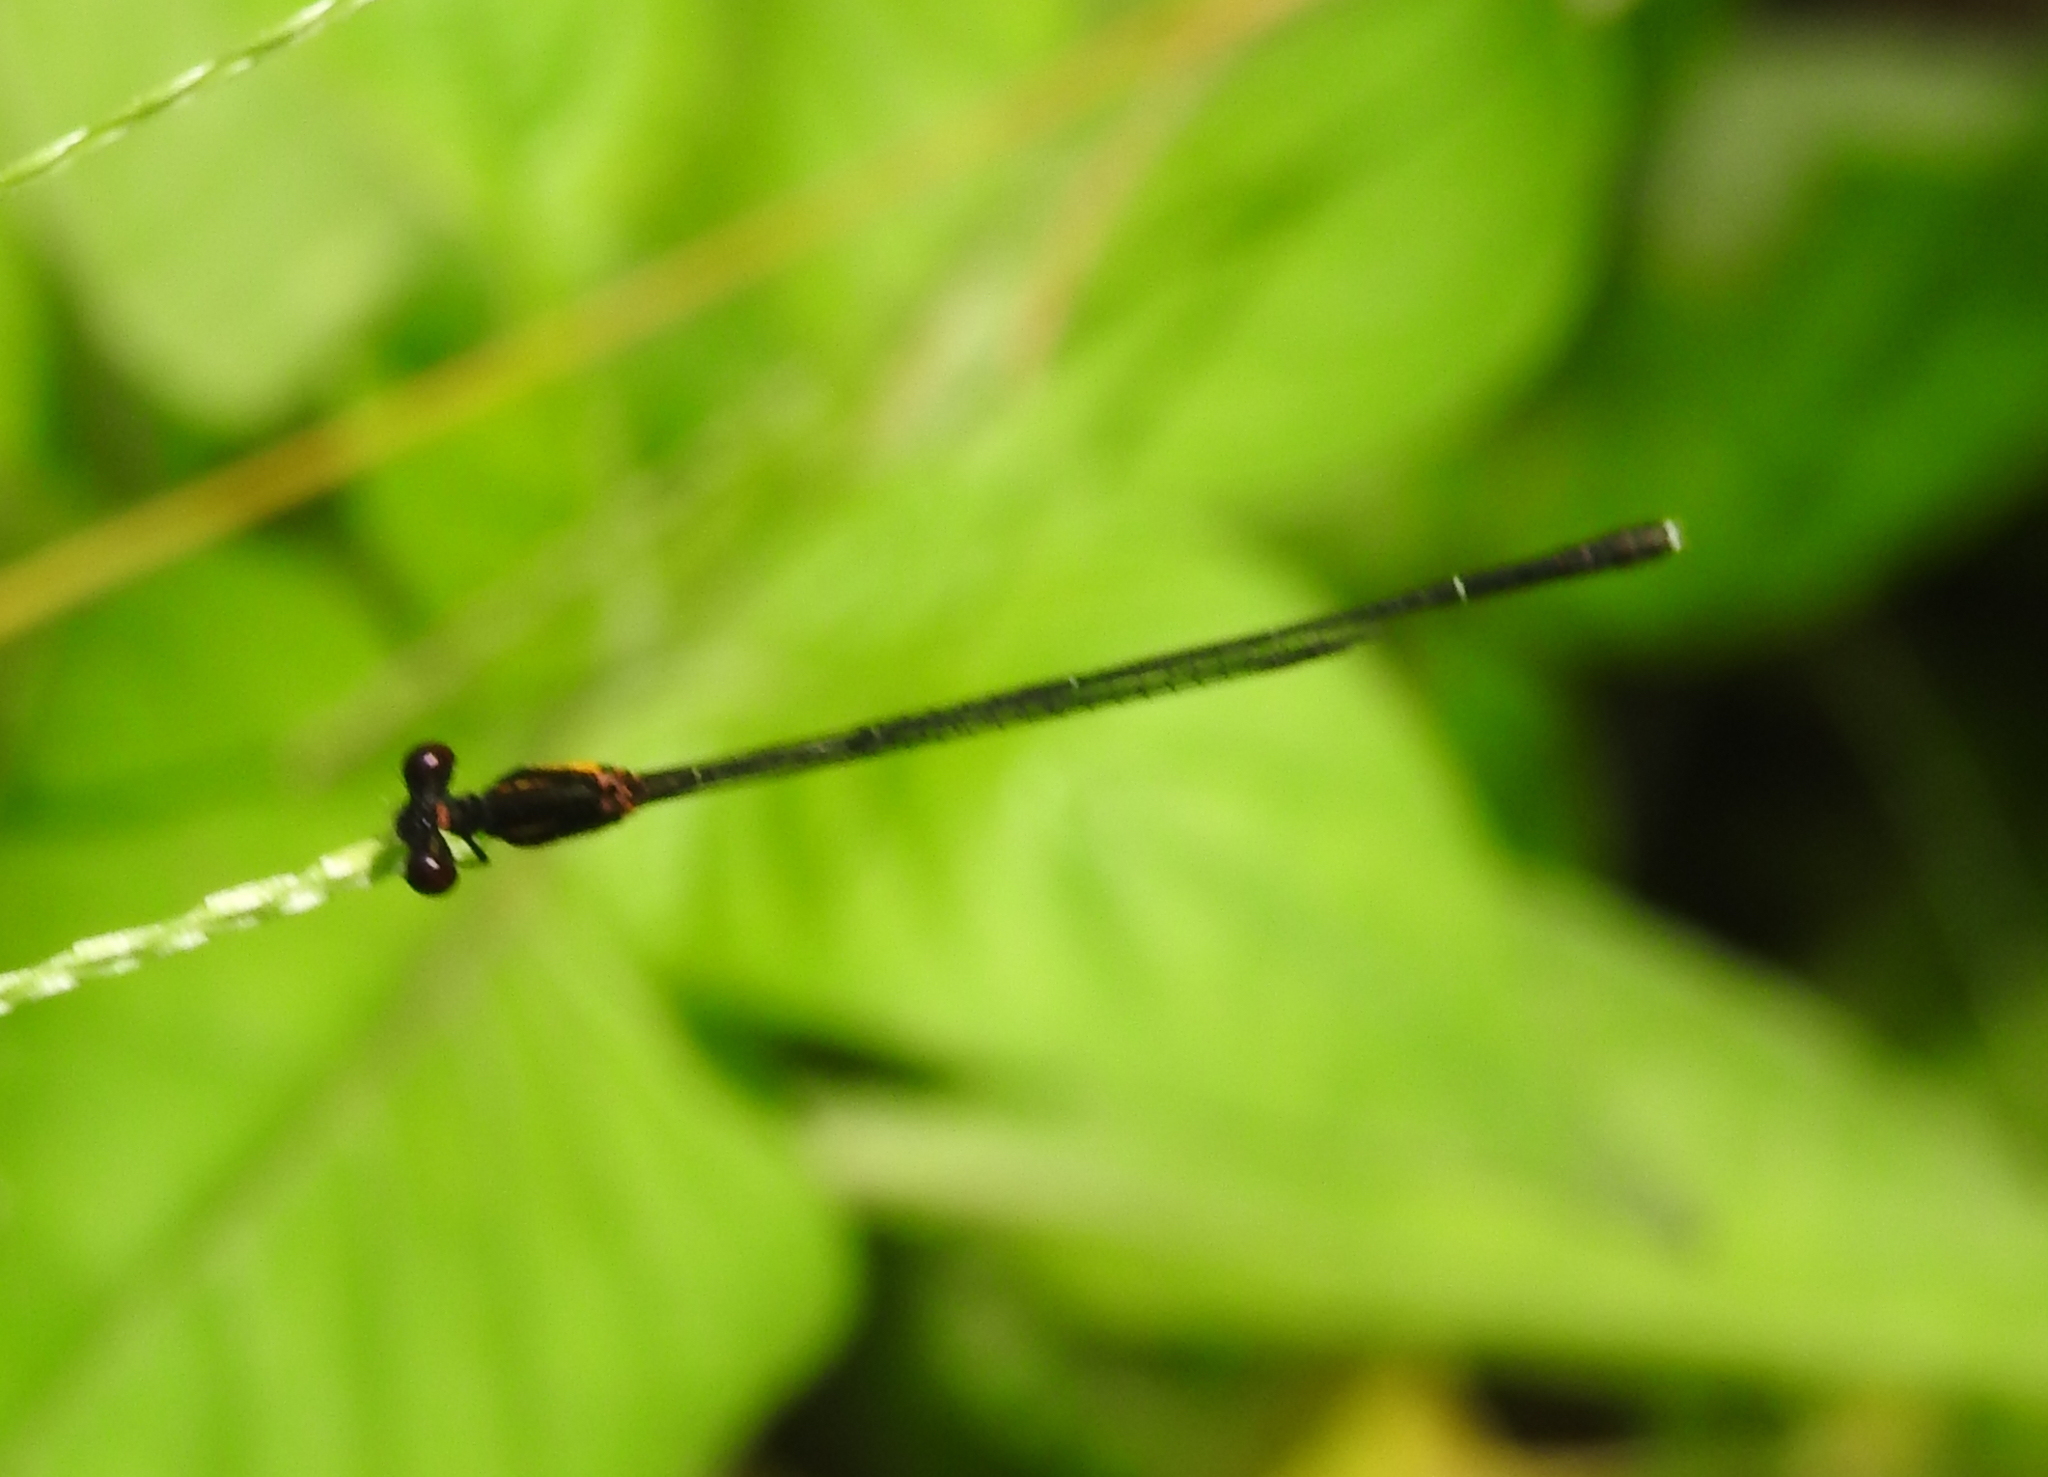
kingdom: Animalia
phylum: Arthropoda
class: Insecta
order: Odonata
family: Platycnemididae
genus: Prodasineura
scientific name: Prodasineura verticalis
